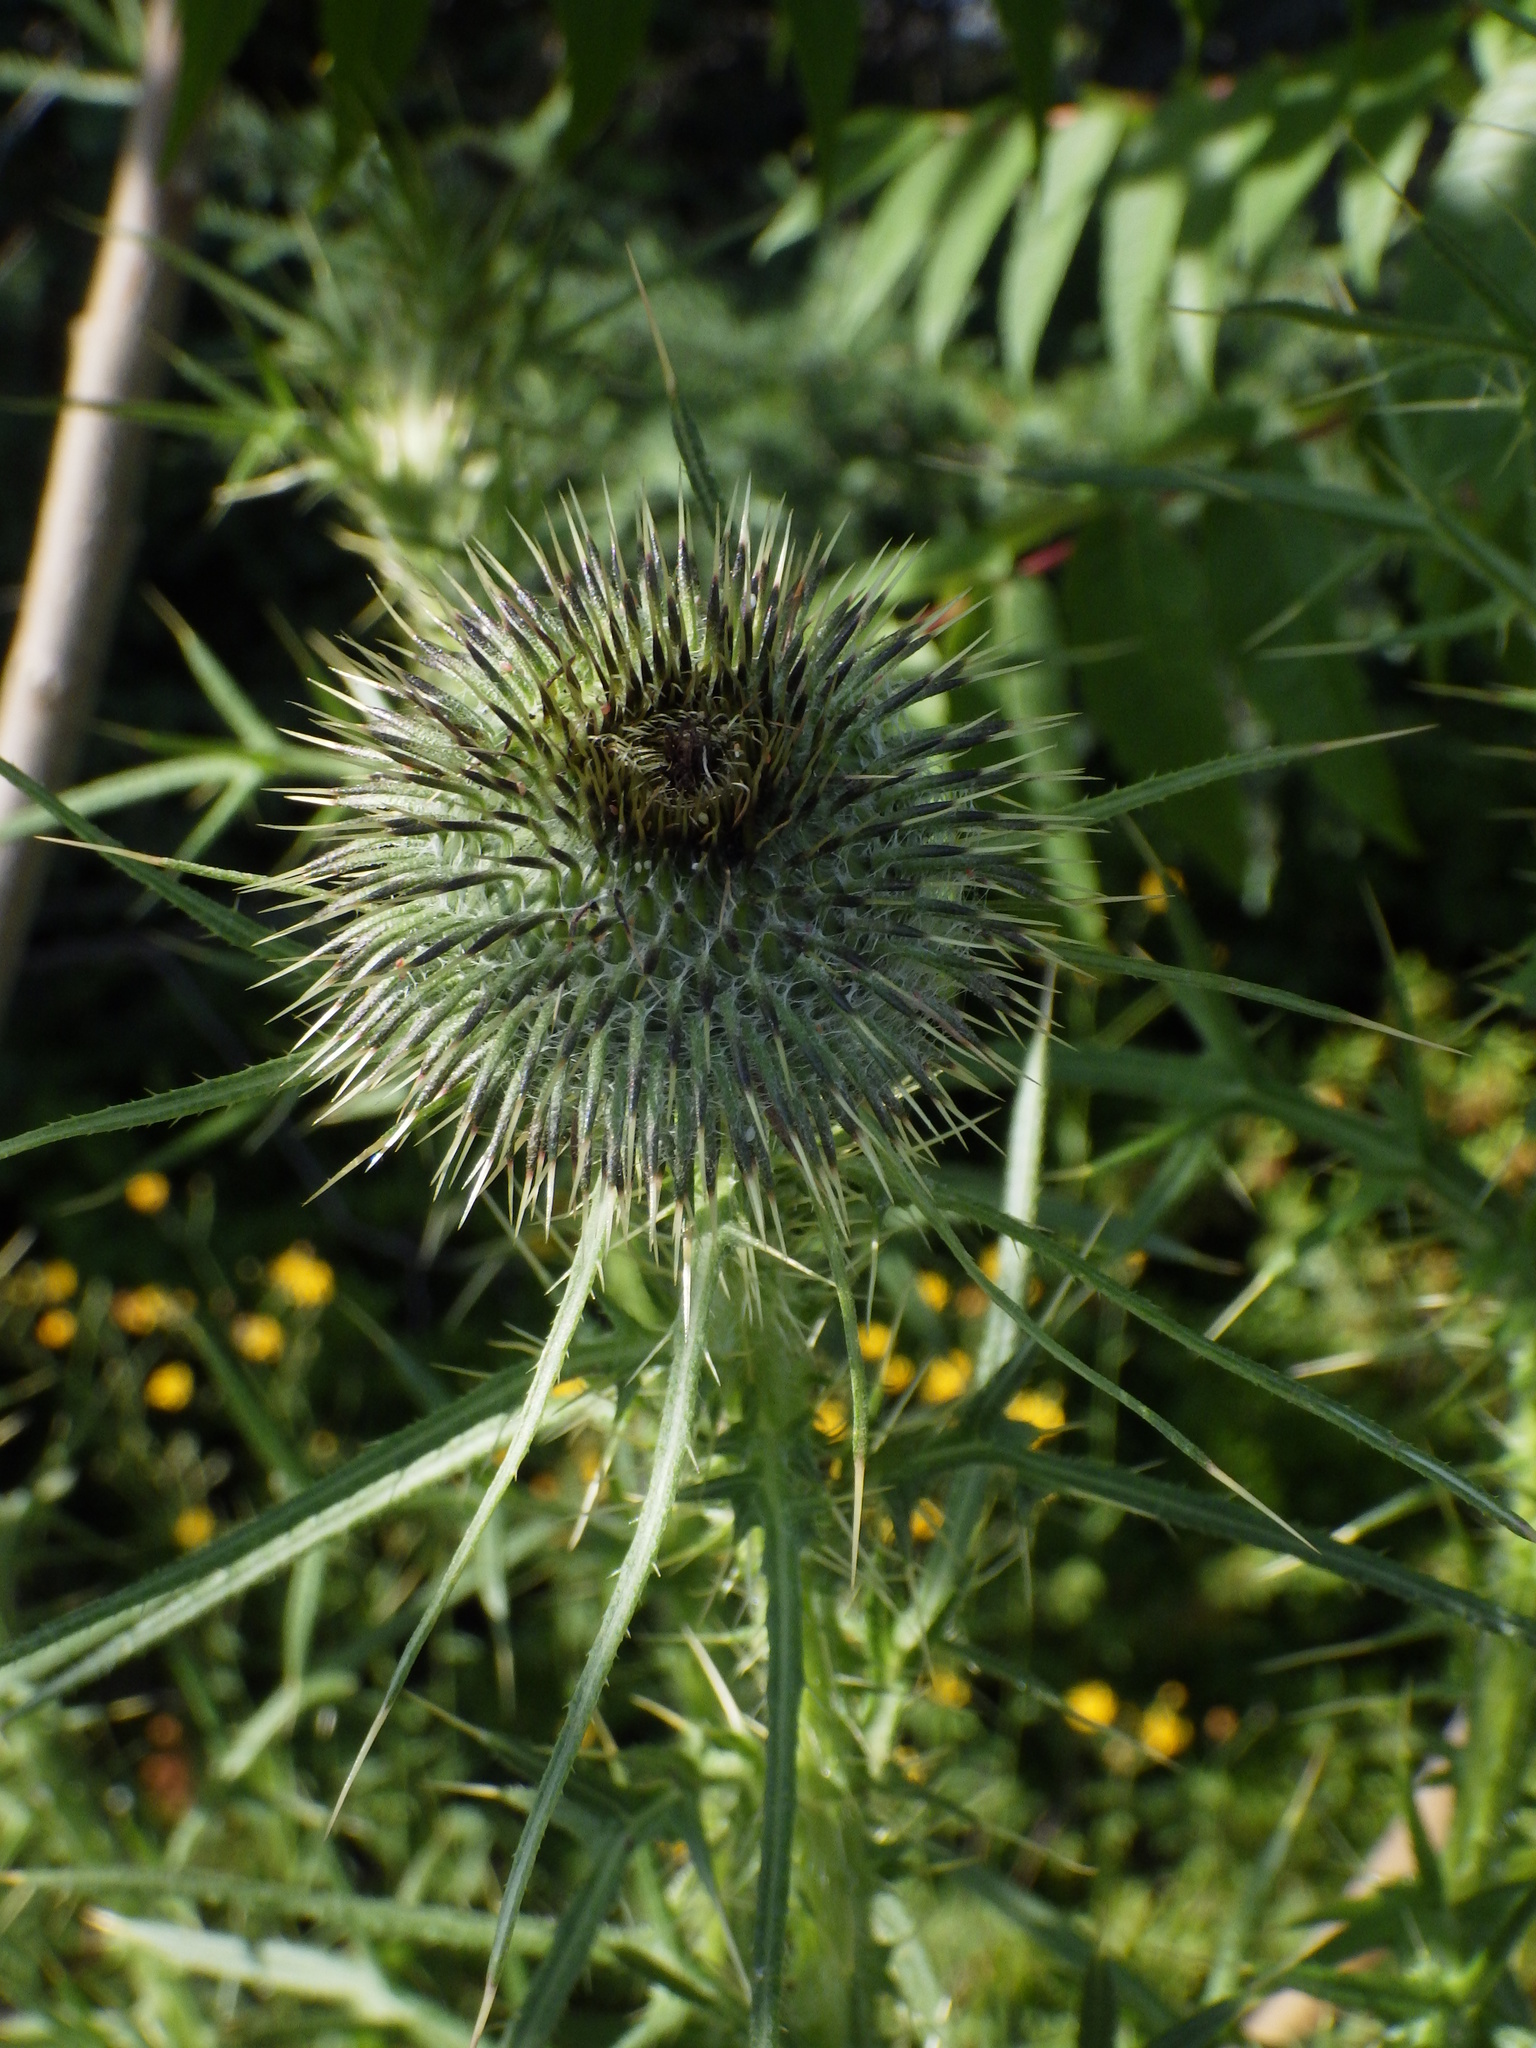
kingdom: Plantae
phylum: Tracheophyta
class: Magnoliopsida
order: Asterales
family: Asteraceae
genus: Cirsium
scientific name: Cirsium vulgare
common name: Bull thistle
